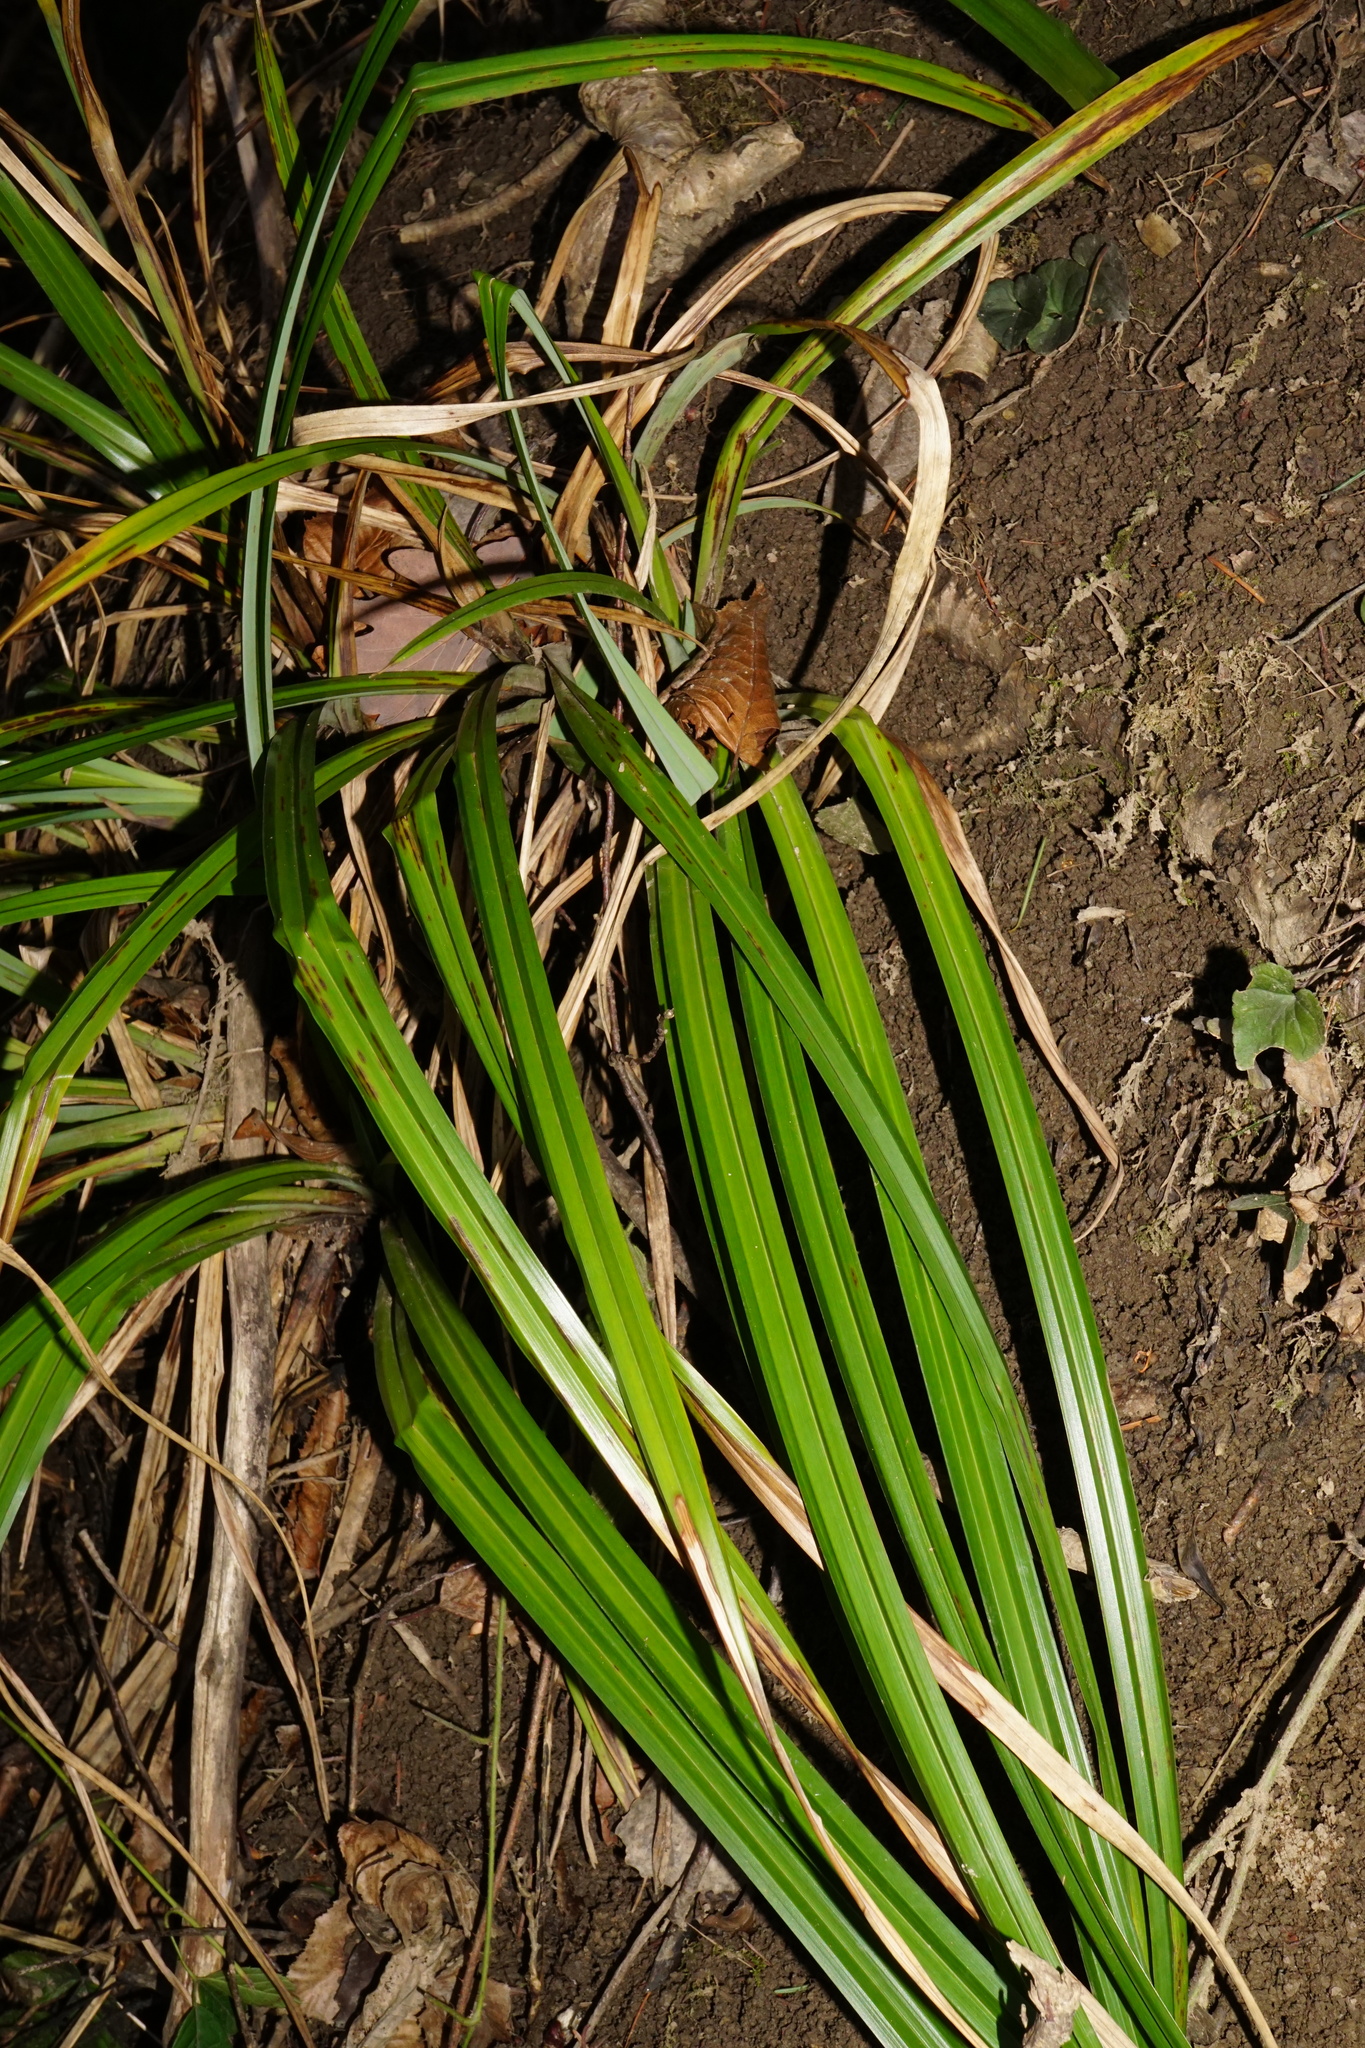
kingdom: Plantae
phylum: Tracheophyta
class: Liliopsida
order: Poales
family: Cyperaceae
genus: Carex
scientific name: Carex pendula
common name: Pendulous sedge
